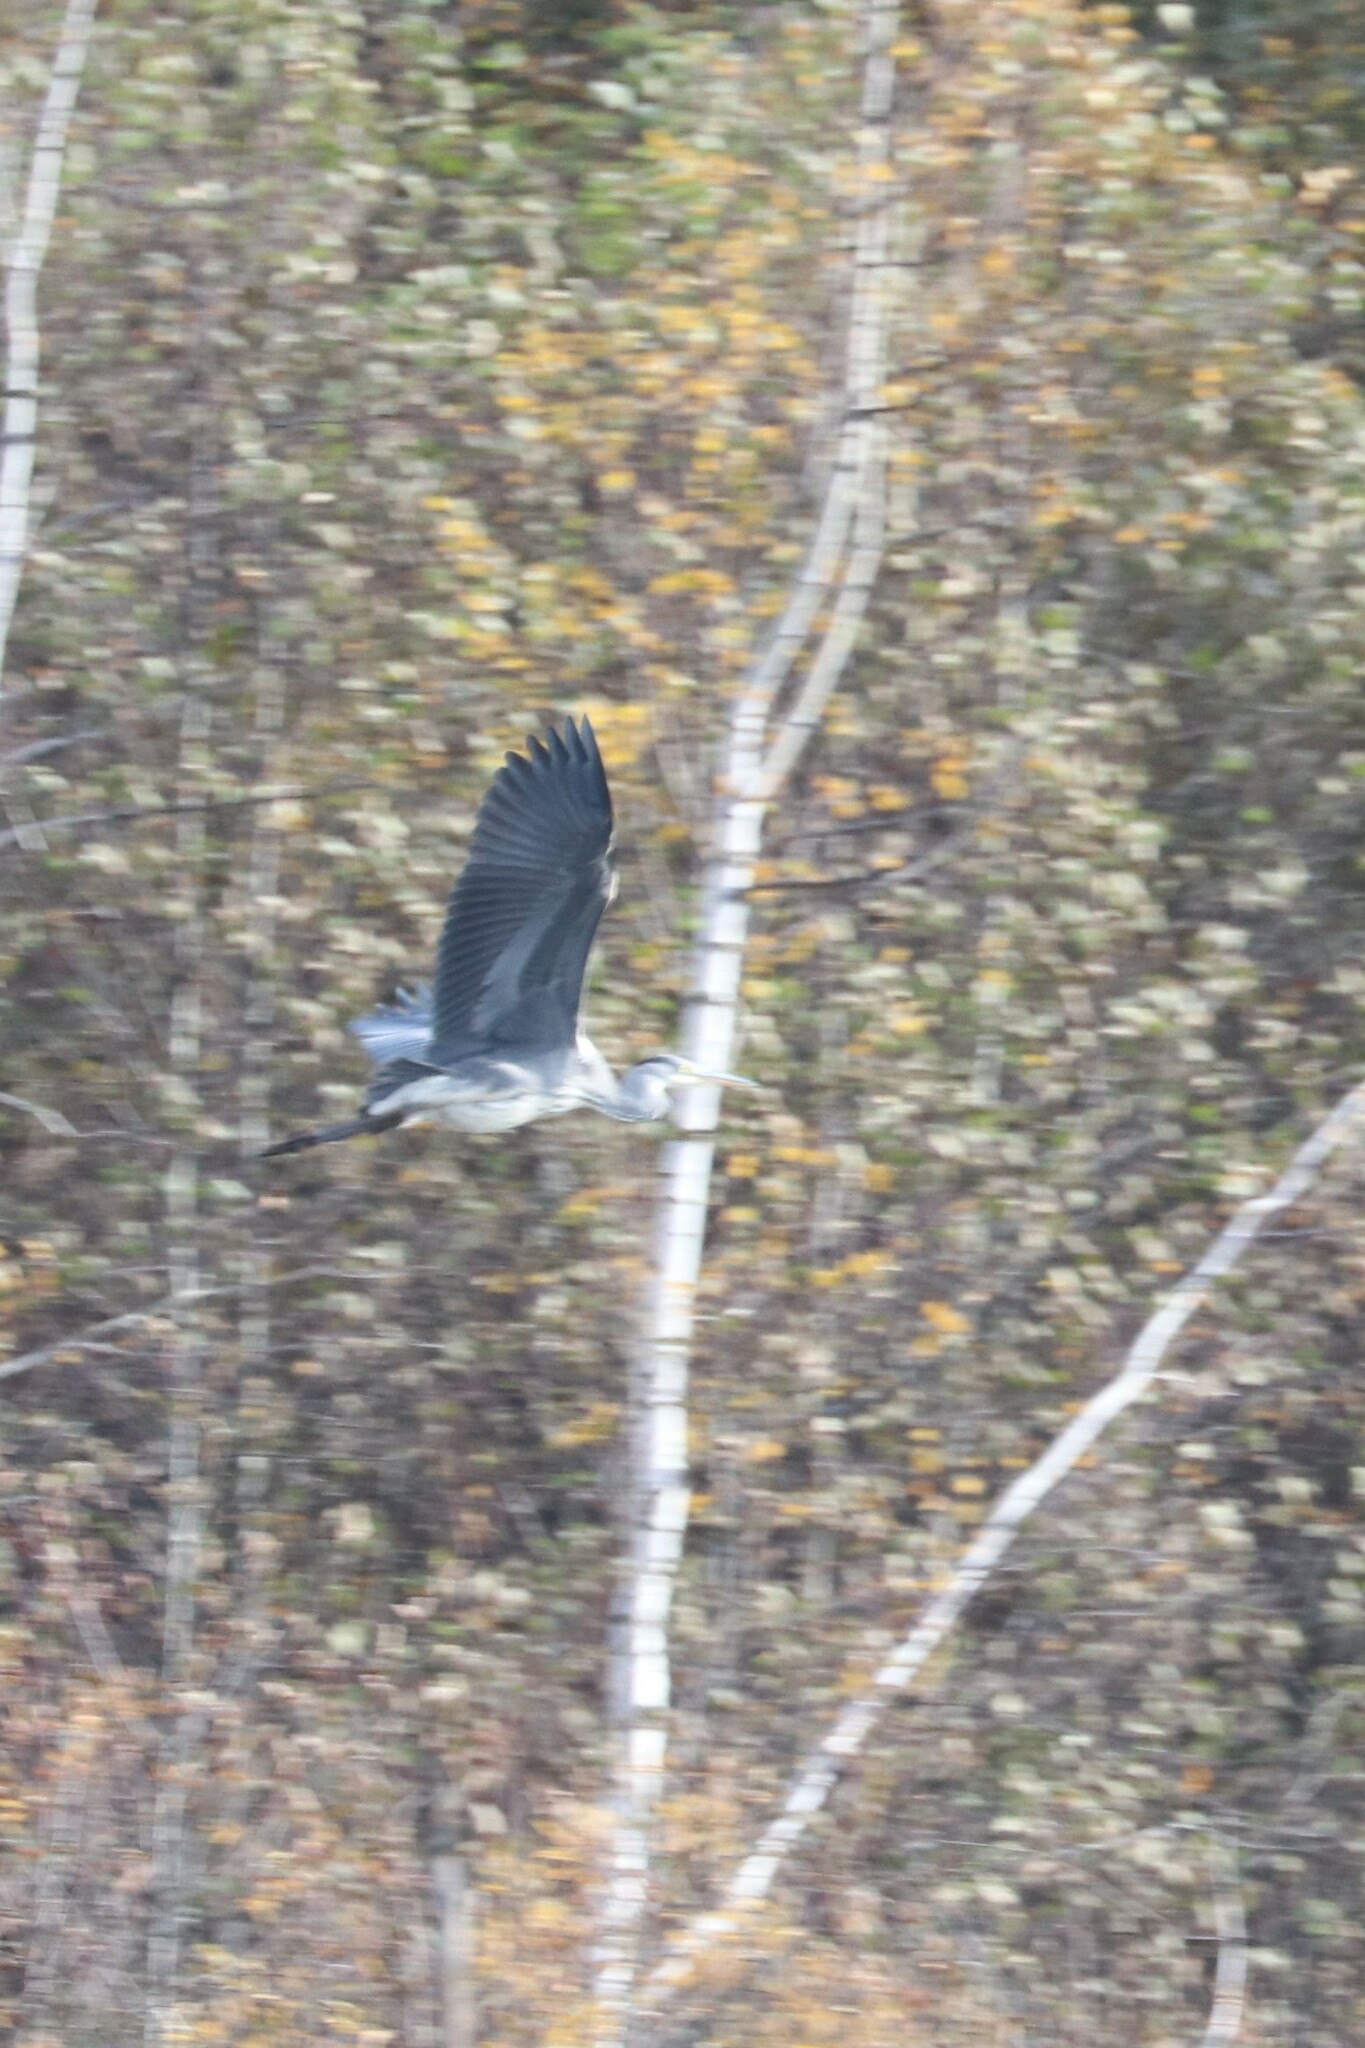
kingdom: Animalia
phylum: Chordata
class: Aves
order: Pelecaniformes
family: Ardeidae
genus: Ardea
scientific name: Ardea cinerea
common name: Grey heron
